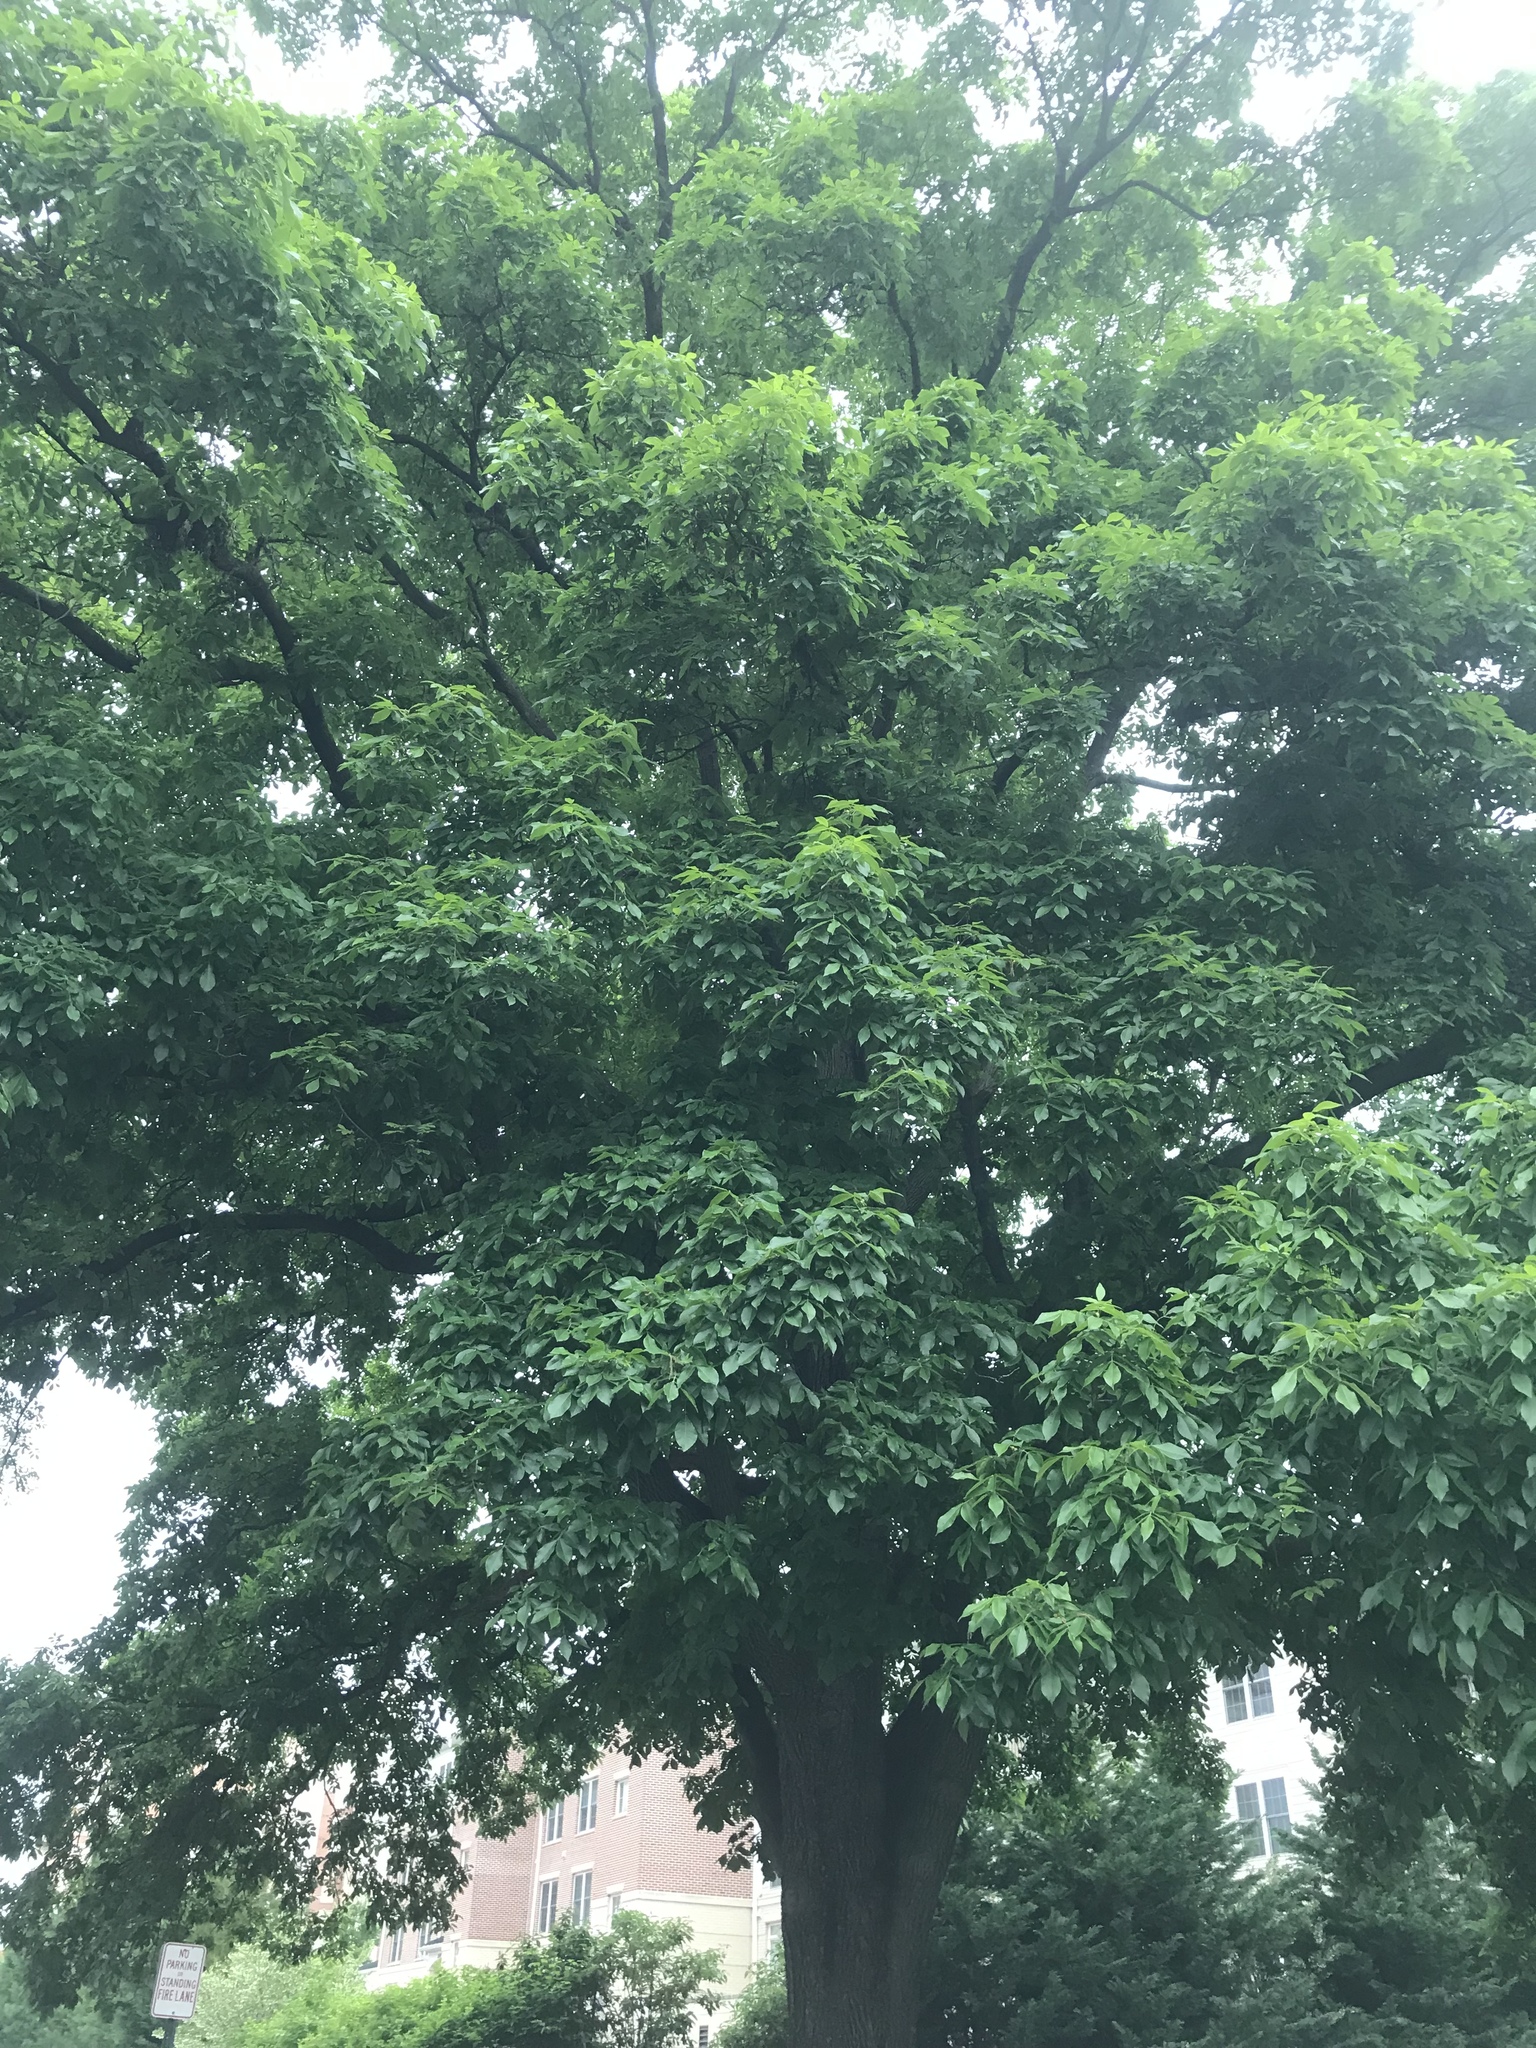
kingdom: Plantae
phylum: Tracheophyta
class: Magnoliopsida
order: Fagales
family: Juglandaceae
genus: Carya
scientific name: Carya alba
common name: Mockernut hickory
